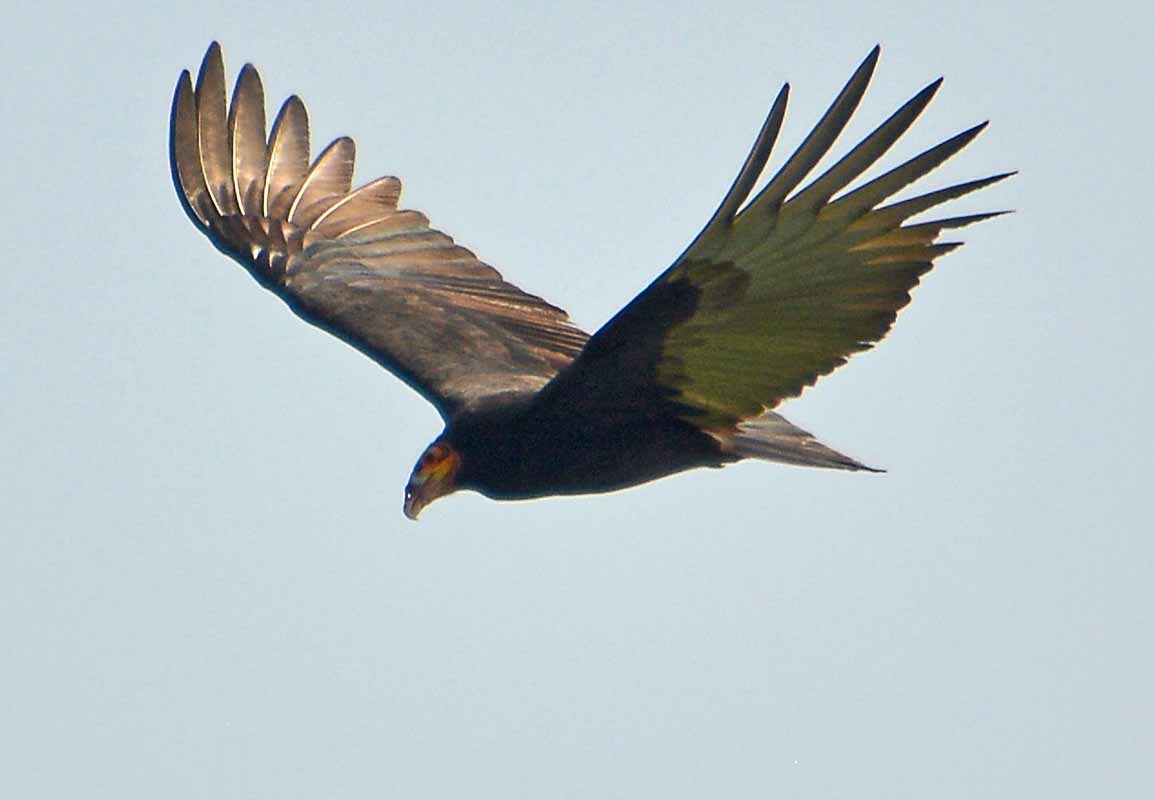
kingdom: Animalia
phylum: Chordata
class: Aves
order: Accipitriformes
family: Cathartidae
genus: Cathartes
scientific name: Cathartes burrovianus
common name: Lesser yellow-headed vulture
